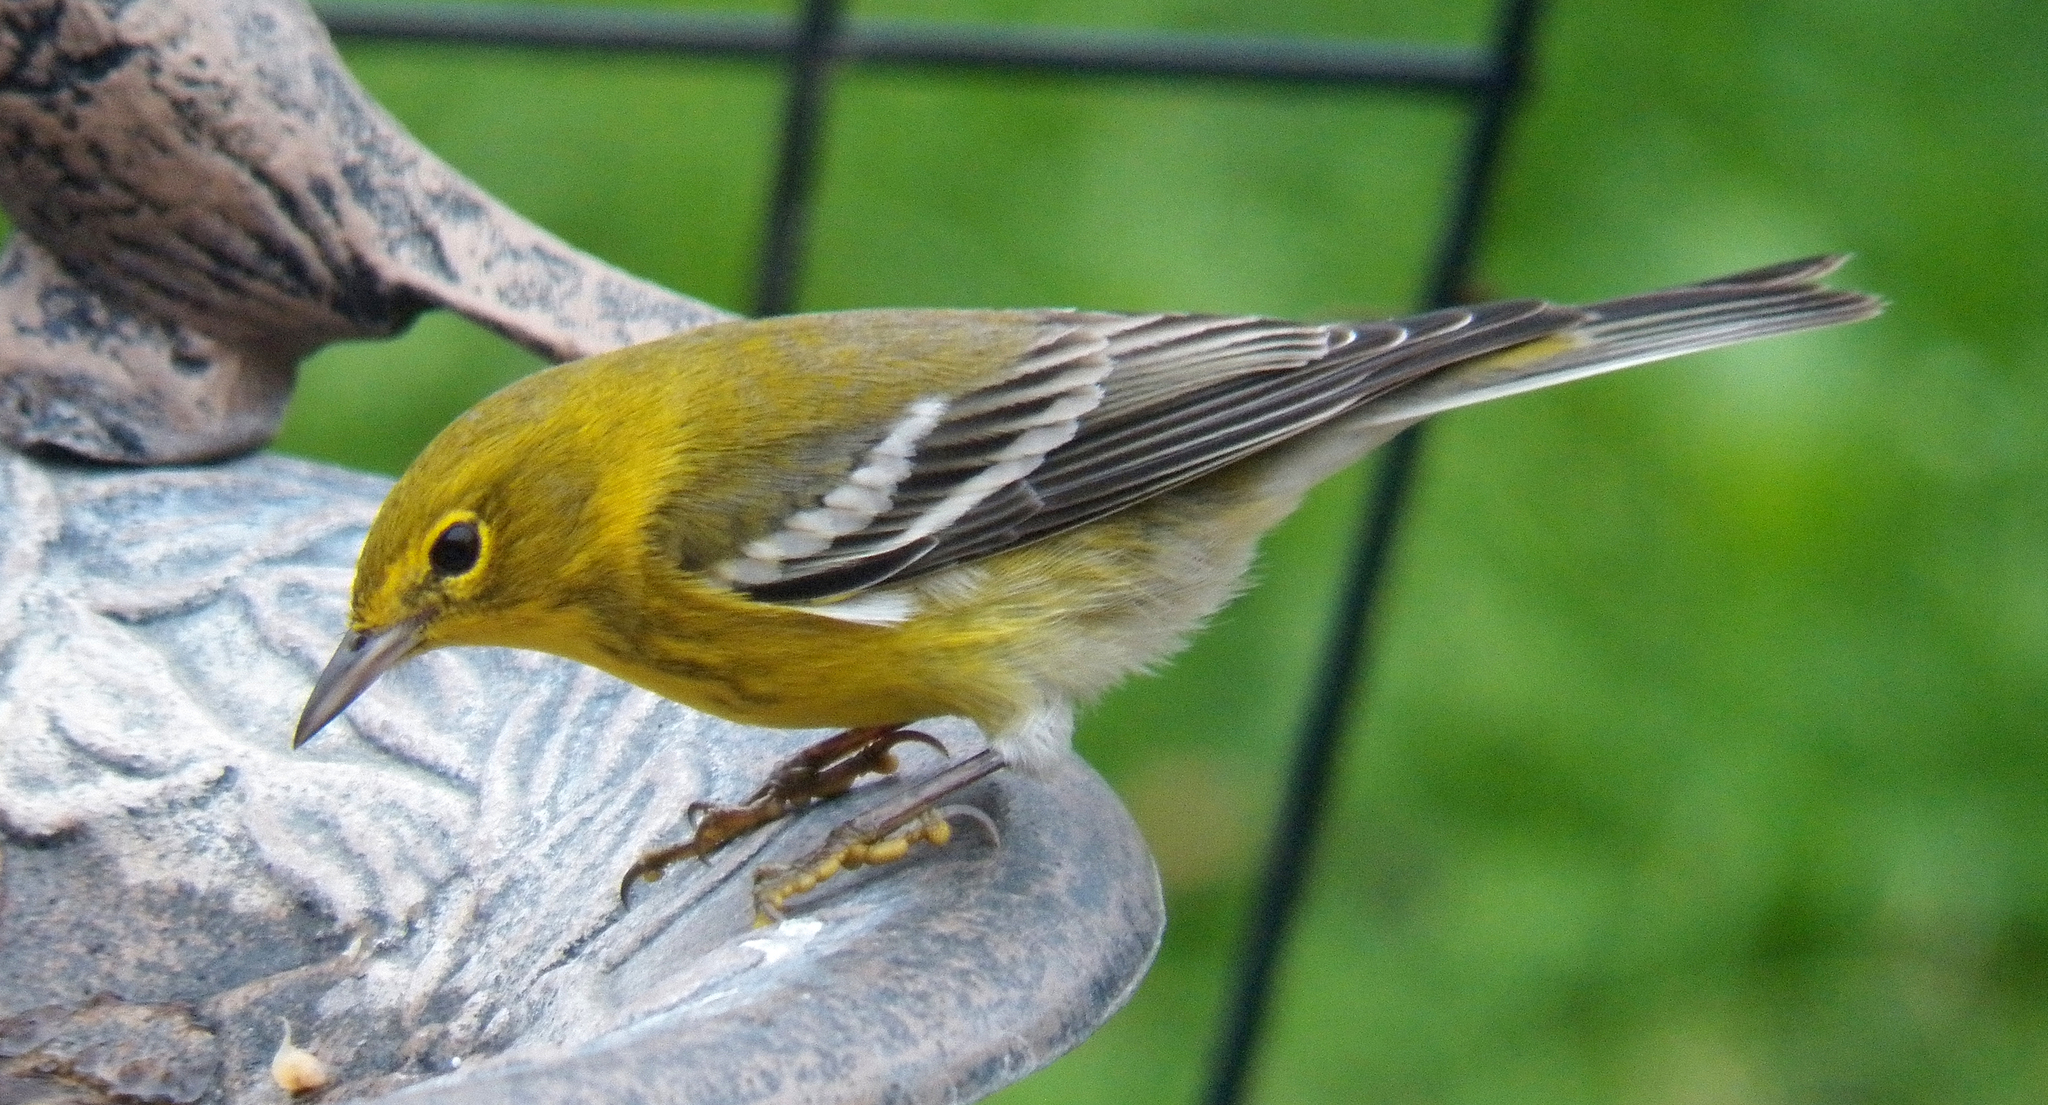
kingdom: Animalia
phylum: Chordata
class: Aves
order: Passeriformes
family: Parulidae
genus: Setophaga
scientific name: Setophaga pinus
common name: Pine warbler
